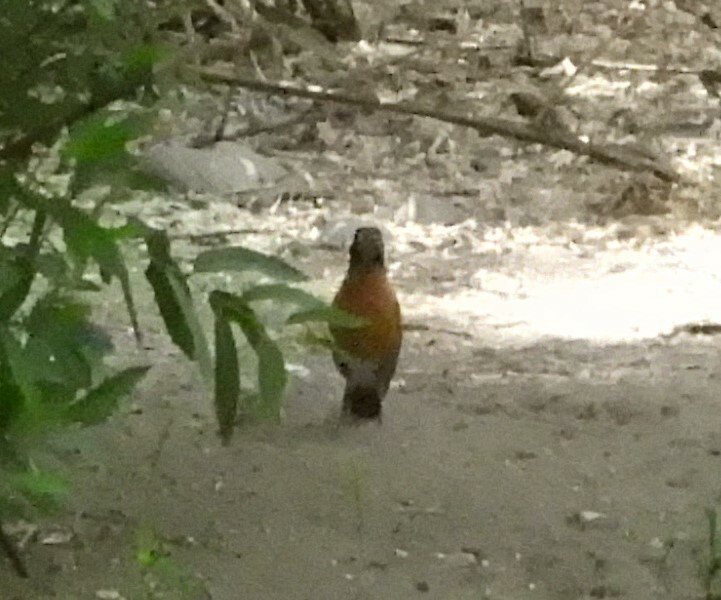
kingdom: Animalia
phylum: Chordata
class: Aves
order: Passeriformes
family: Turdidae
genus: Turdus
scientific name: Turdus migratorius
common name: American robin
